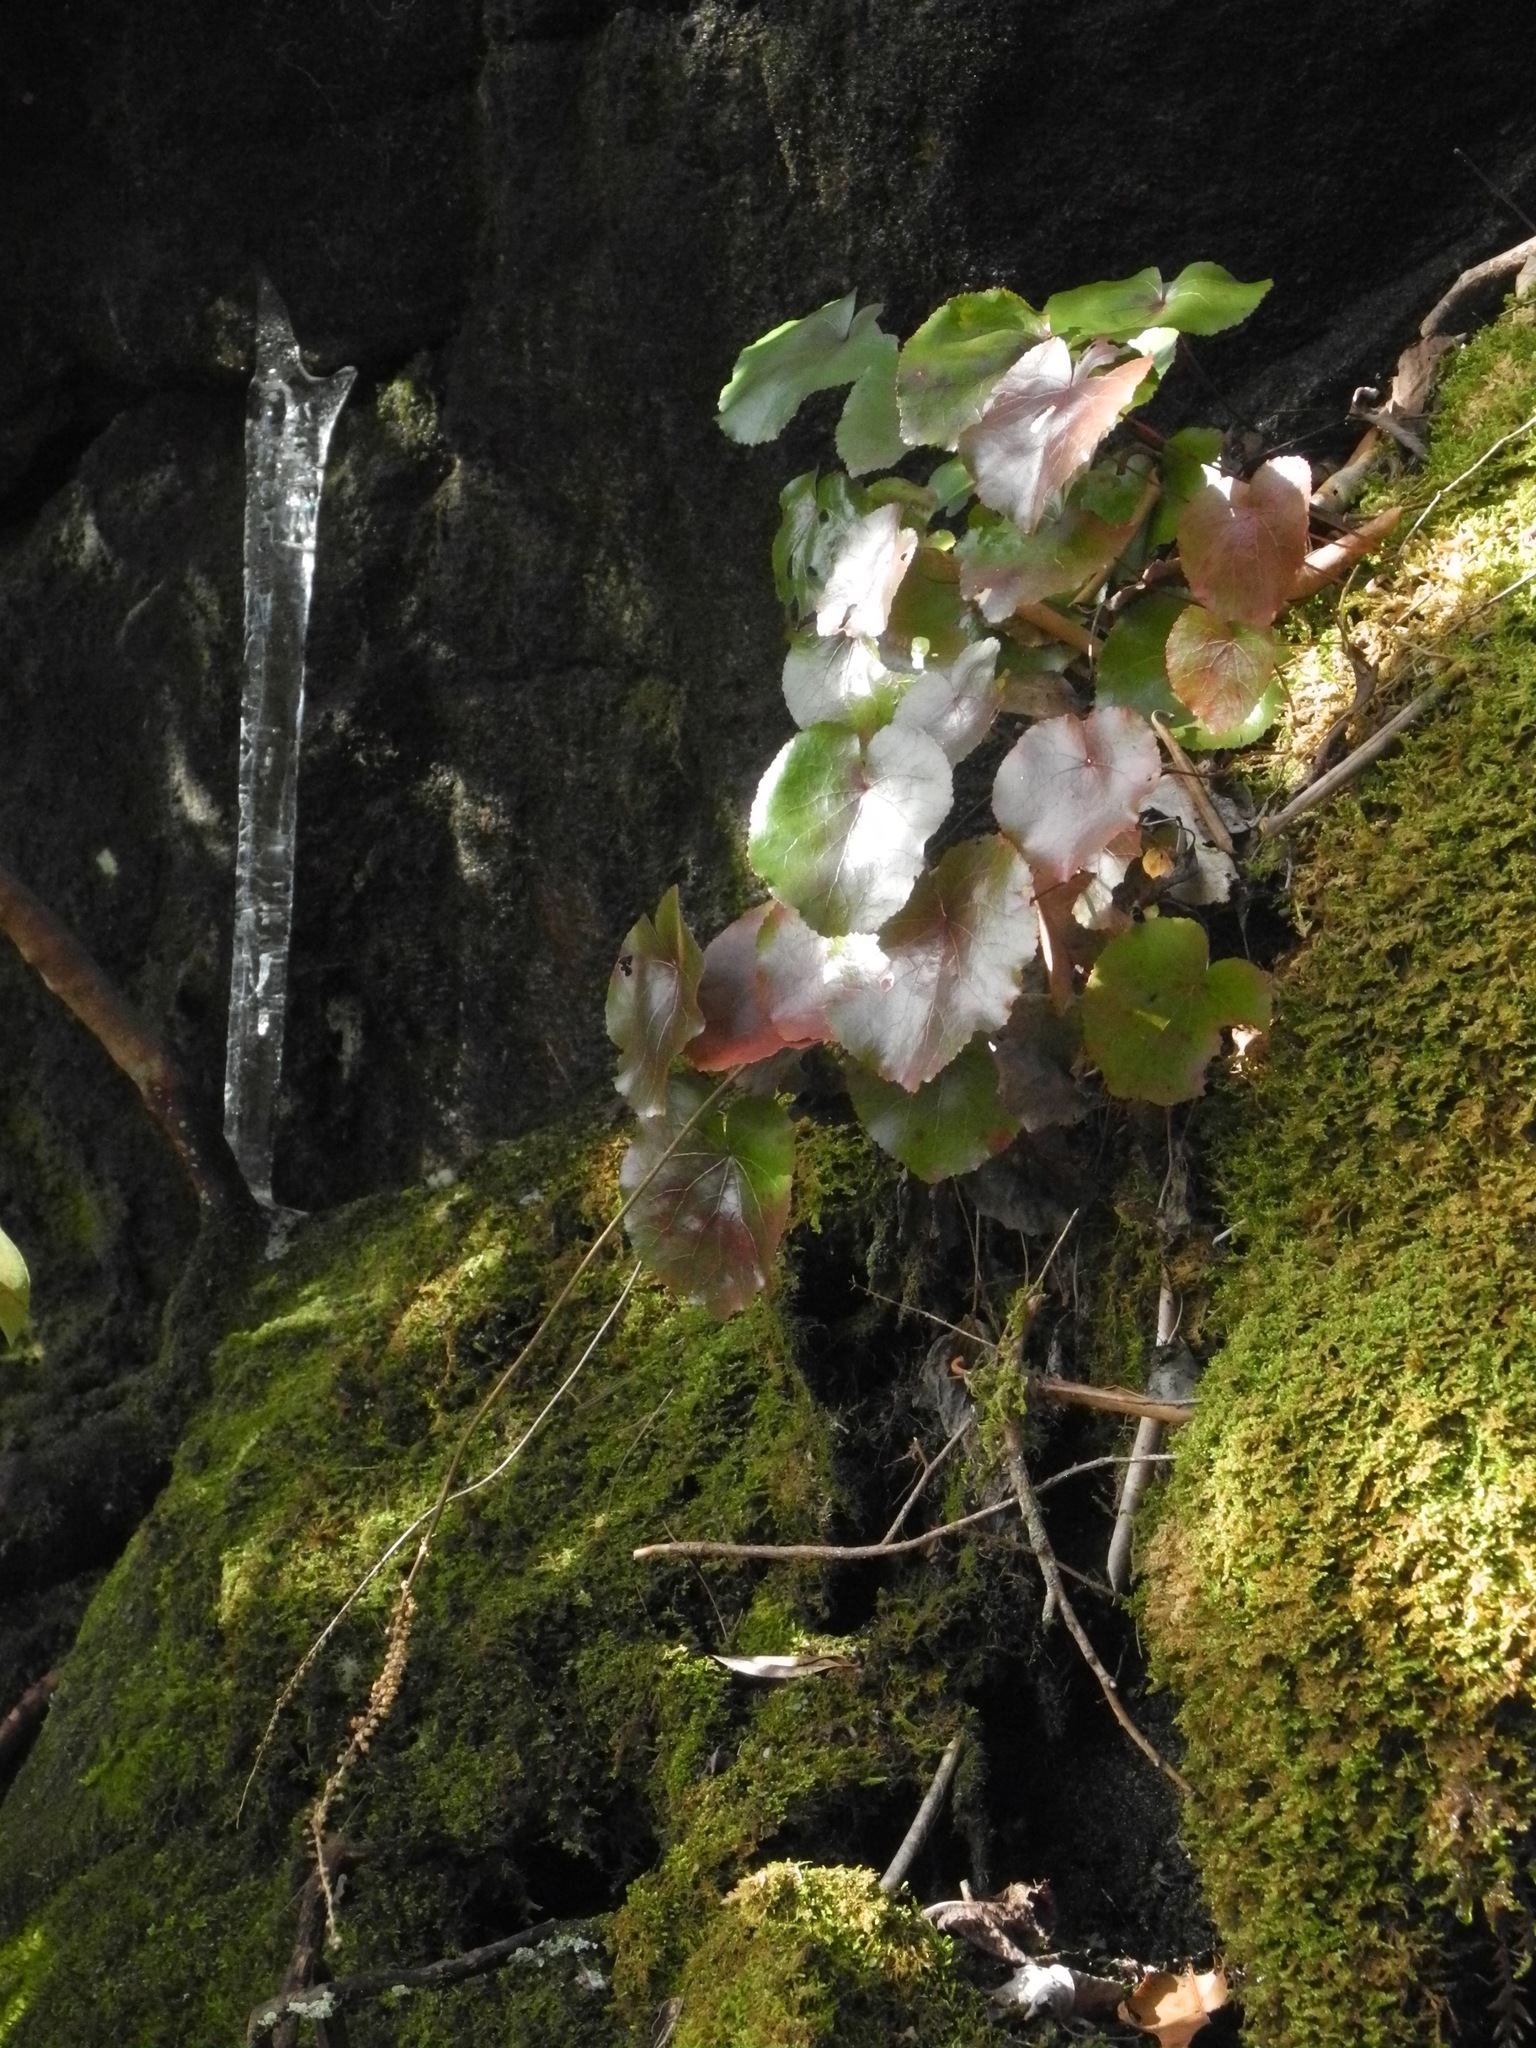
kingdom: Plantae
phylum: Tracheophyta
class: Magnoliopsida
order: Ericales
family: Diapensiaceae
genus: Galax
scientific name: Galax urceolata
